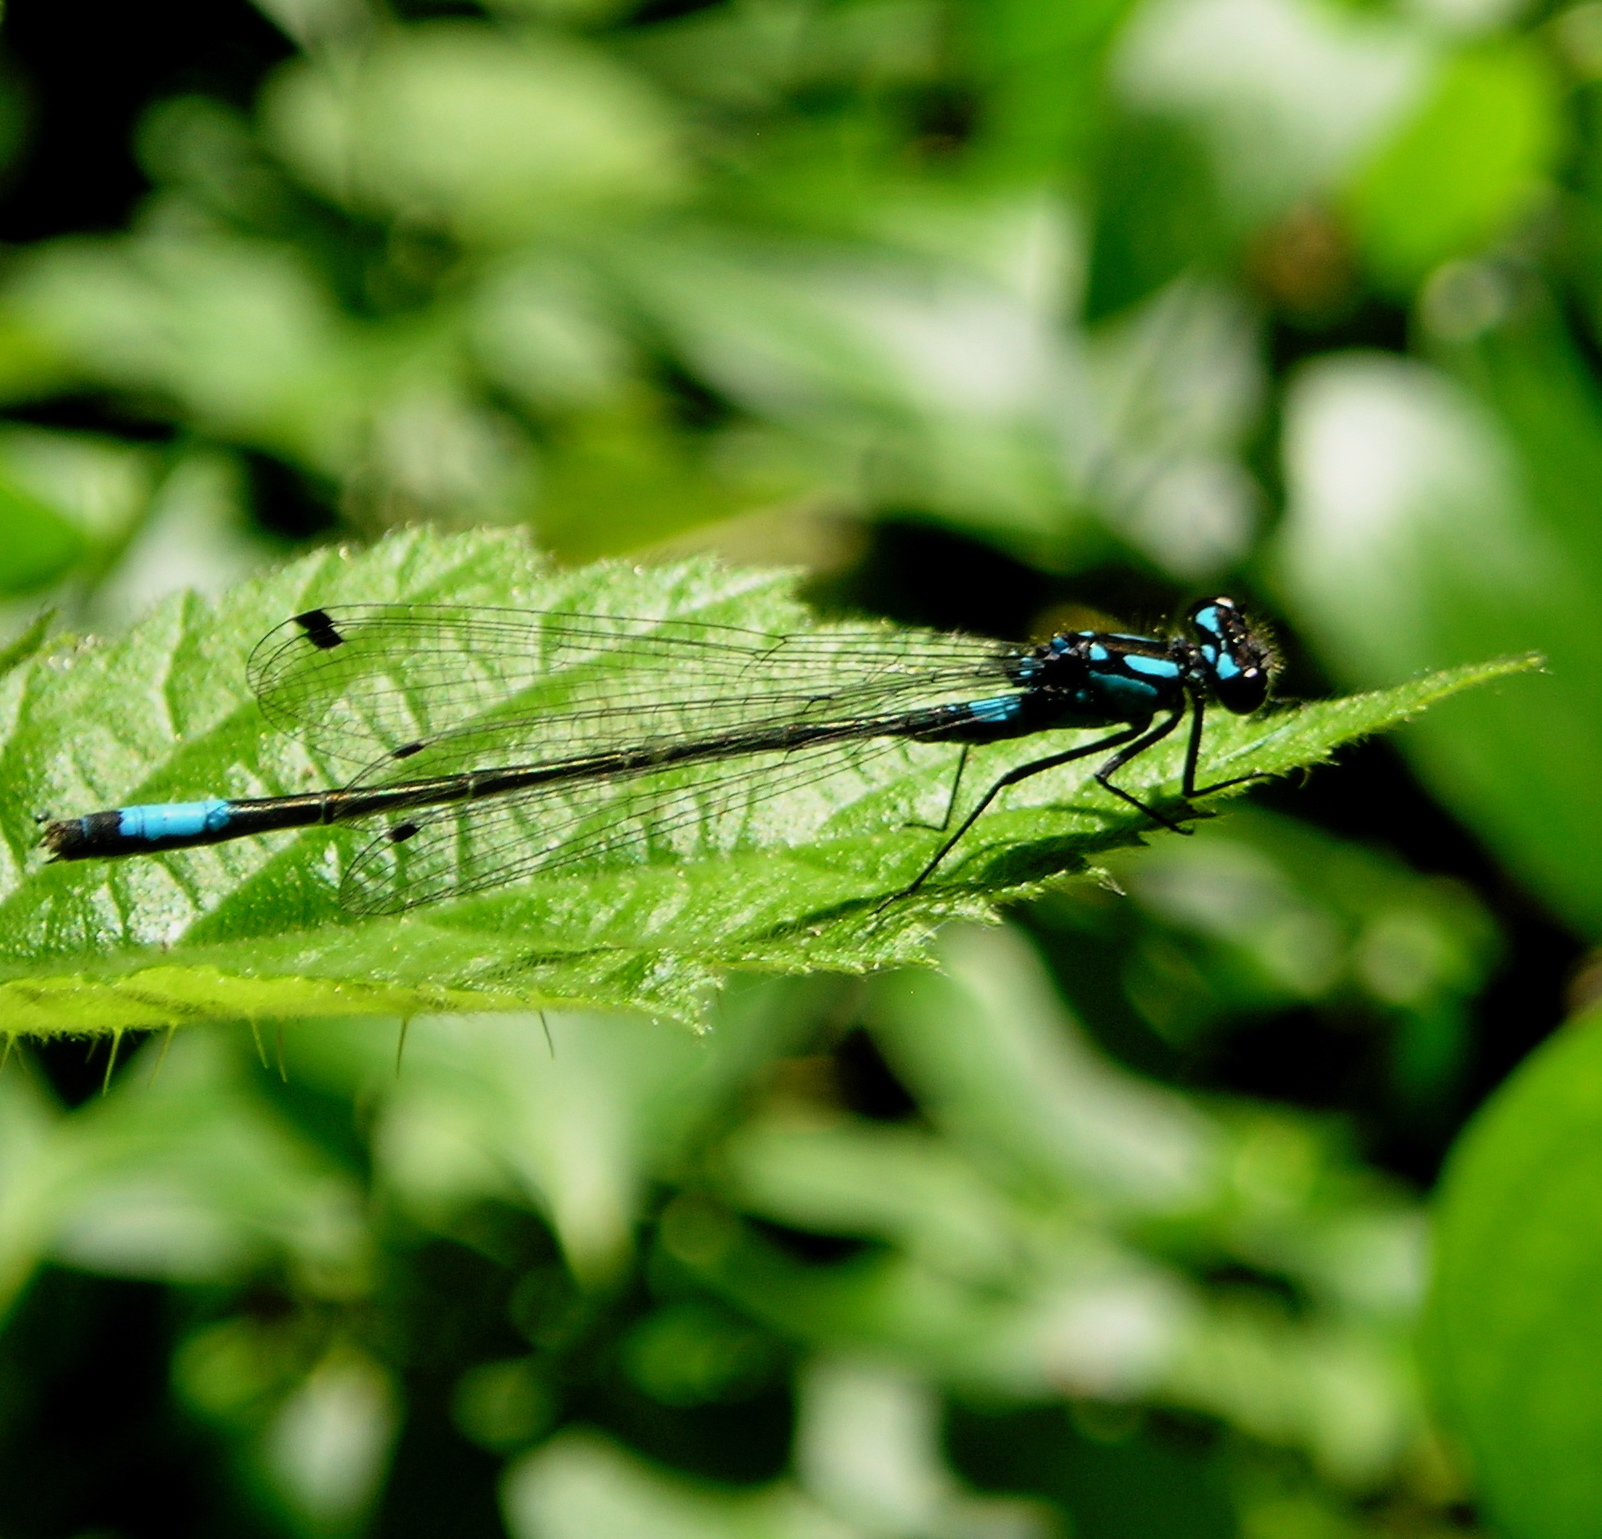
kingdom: Animalia
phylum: Arthropoda
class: Insecta
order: Odonata
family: Coenagrionidae
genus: Zoniagrion
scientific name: Zoniagrion exclamationis
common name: Exclamation damsel
